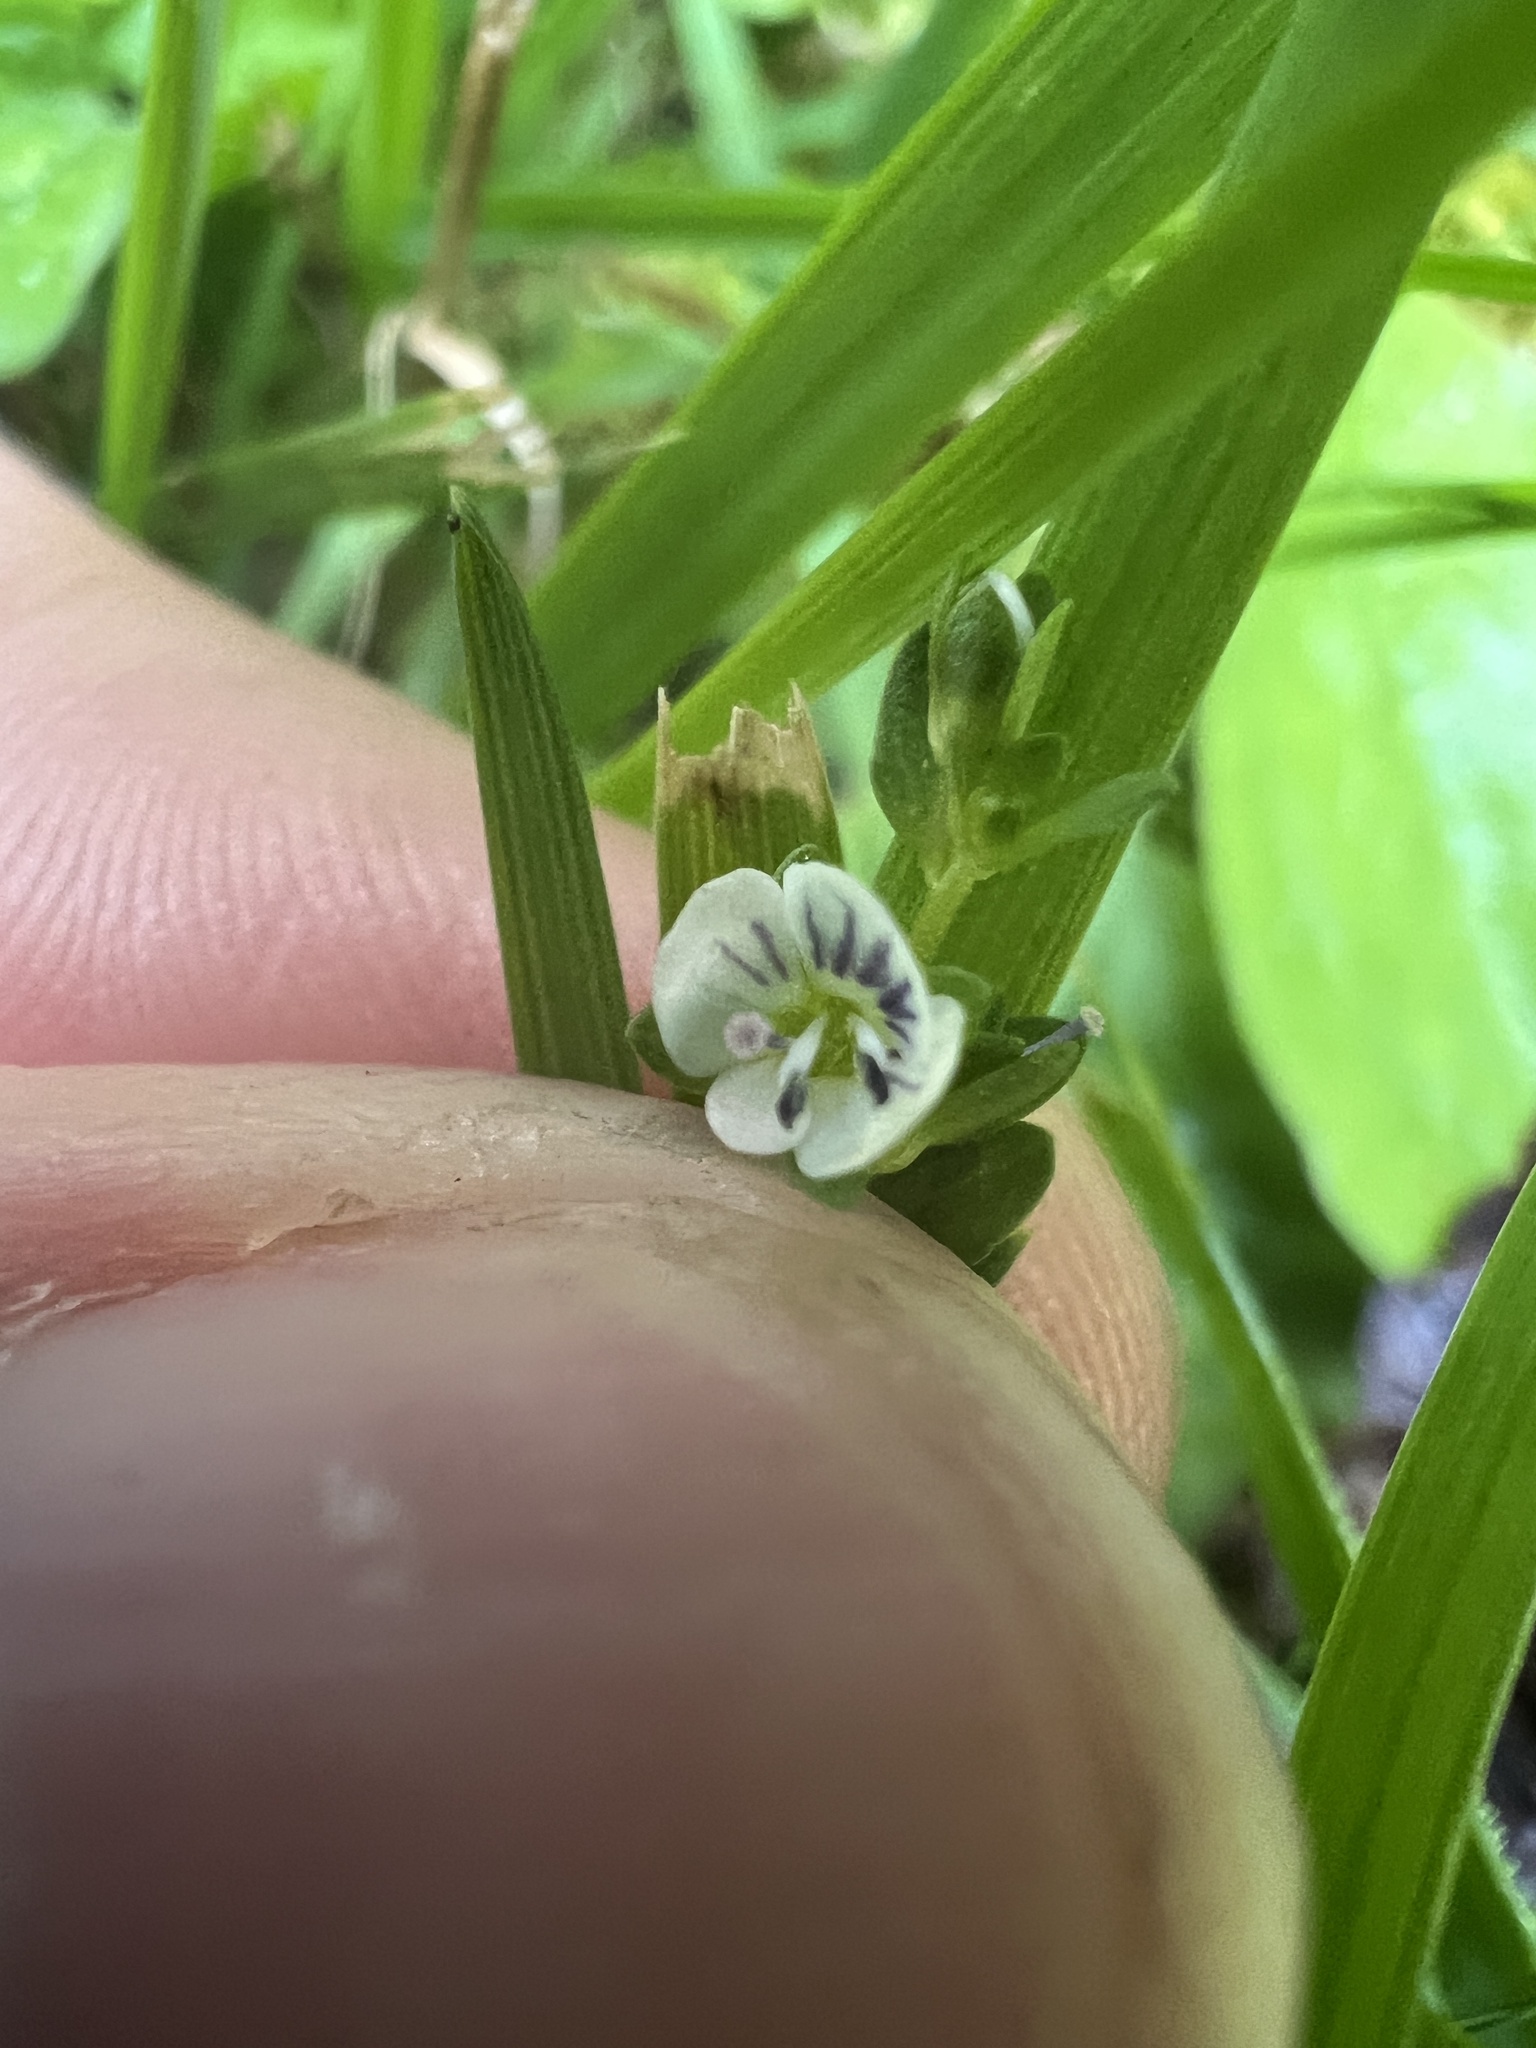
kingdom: Plantae
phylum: Tracheophyta
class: Magnoliopsida
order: Lamiales
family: Plantaginaceae
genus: Veronica
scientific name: Veronica serpyllifolia
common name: Thyme-leaved speedwell
